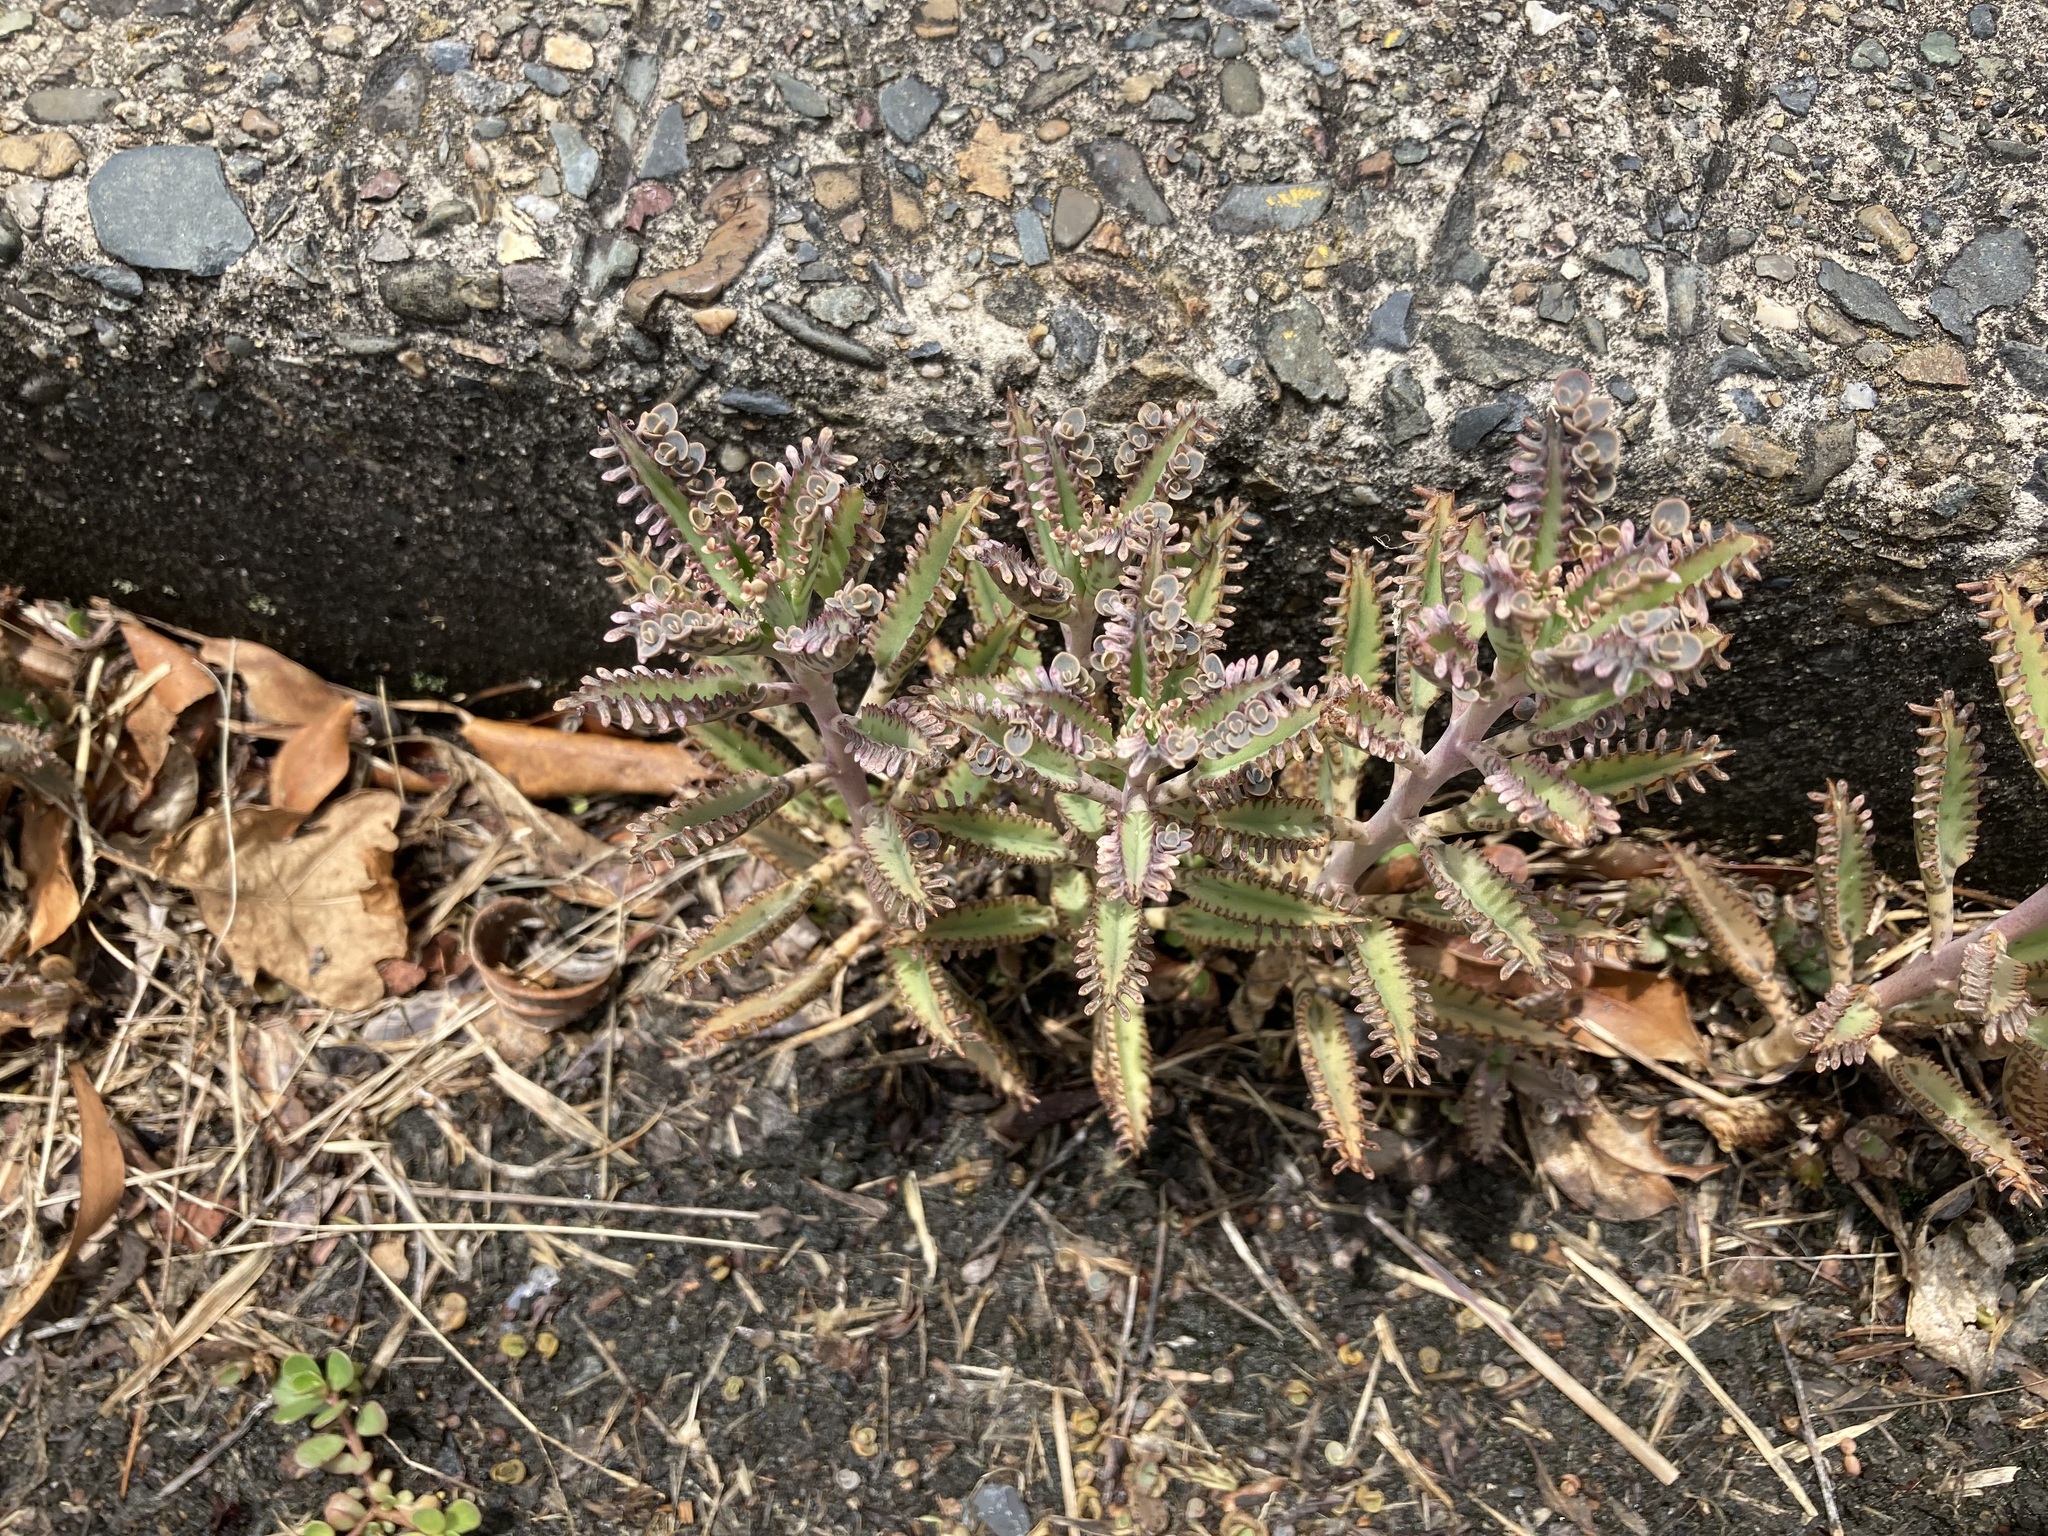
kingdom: Plantae
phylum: Tracheophyta
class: Magnoliopsida
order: Saxifragales
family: Crassulaceae
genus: Kalanchoe
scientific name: Kalanchoe houghtonii
